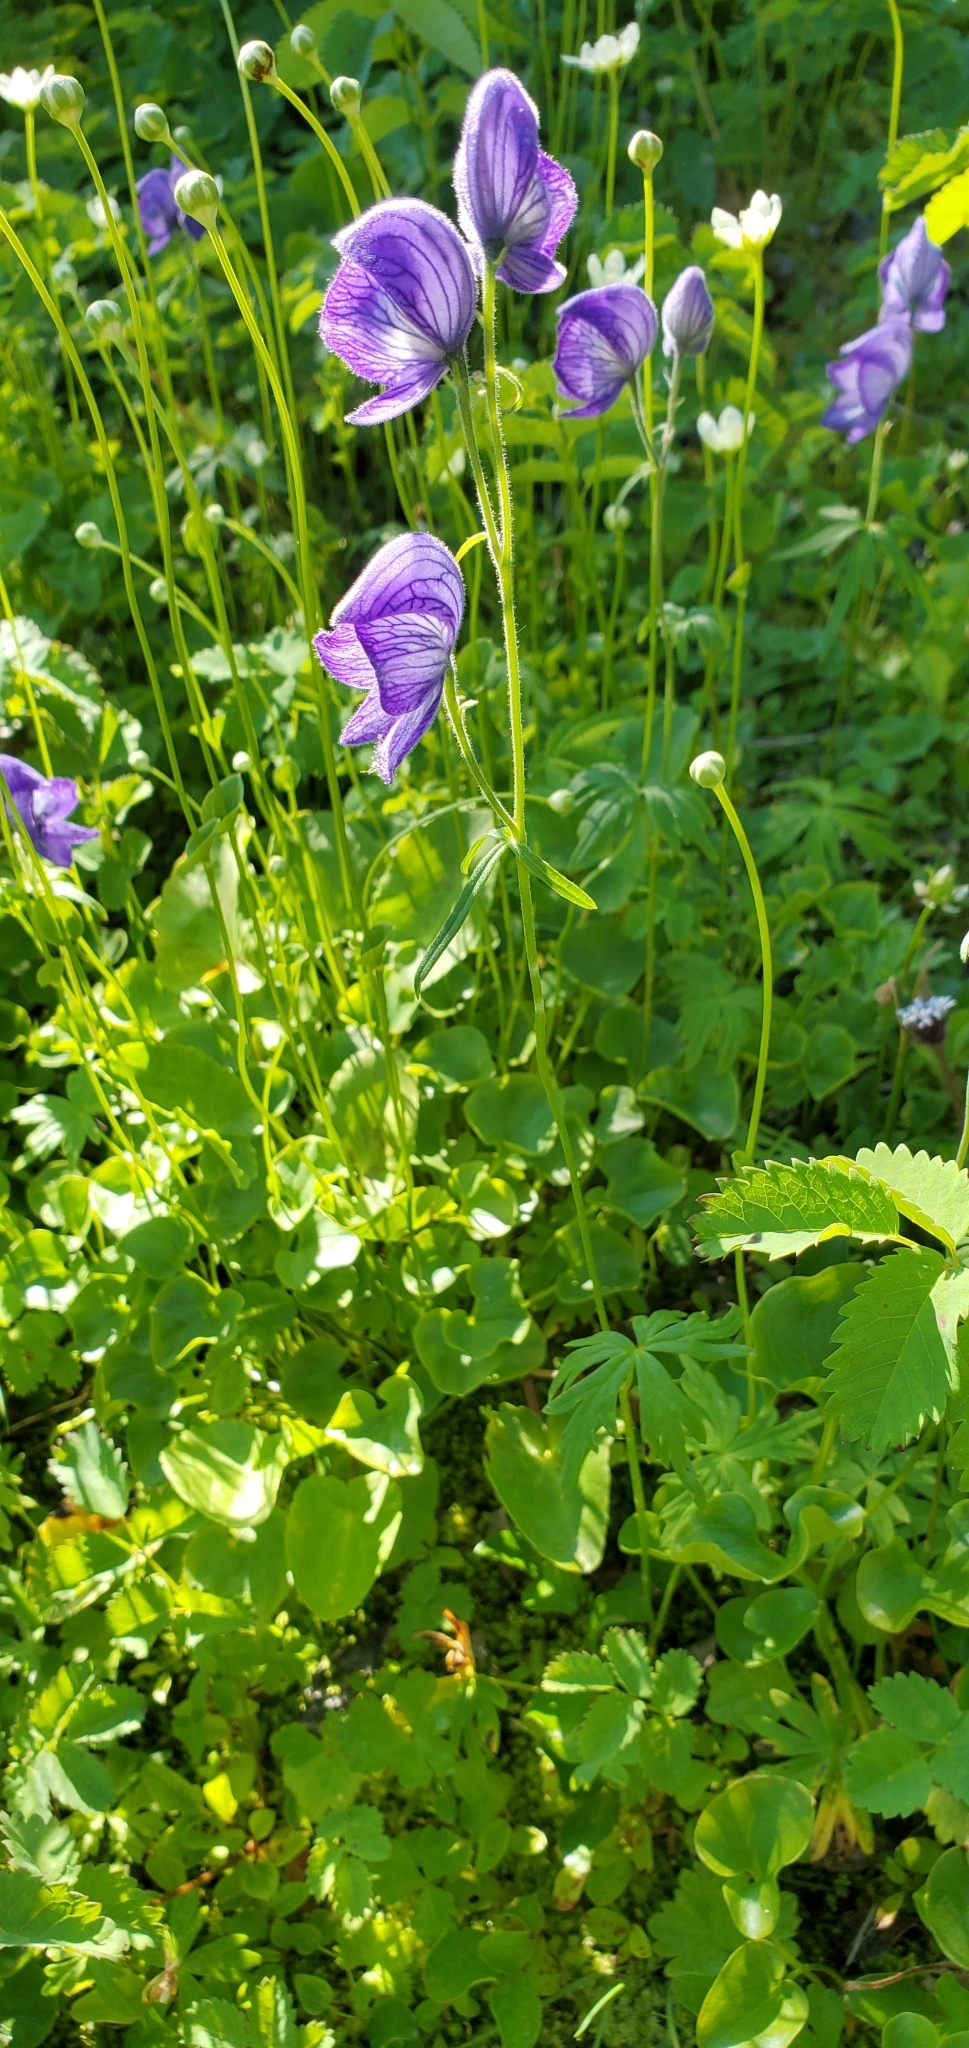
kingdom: Plantae
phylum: Tracheophyta
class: Magnoliopsida
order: Ranunculales
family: Ranunculaceae
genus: Aconitum
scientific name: Aconitum delphiniifolium
